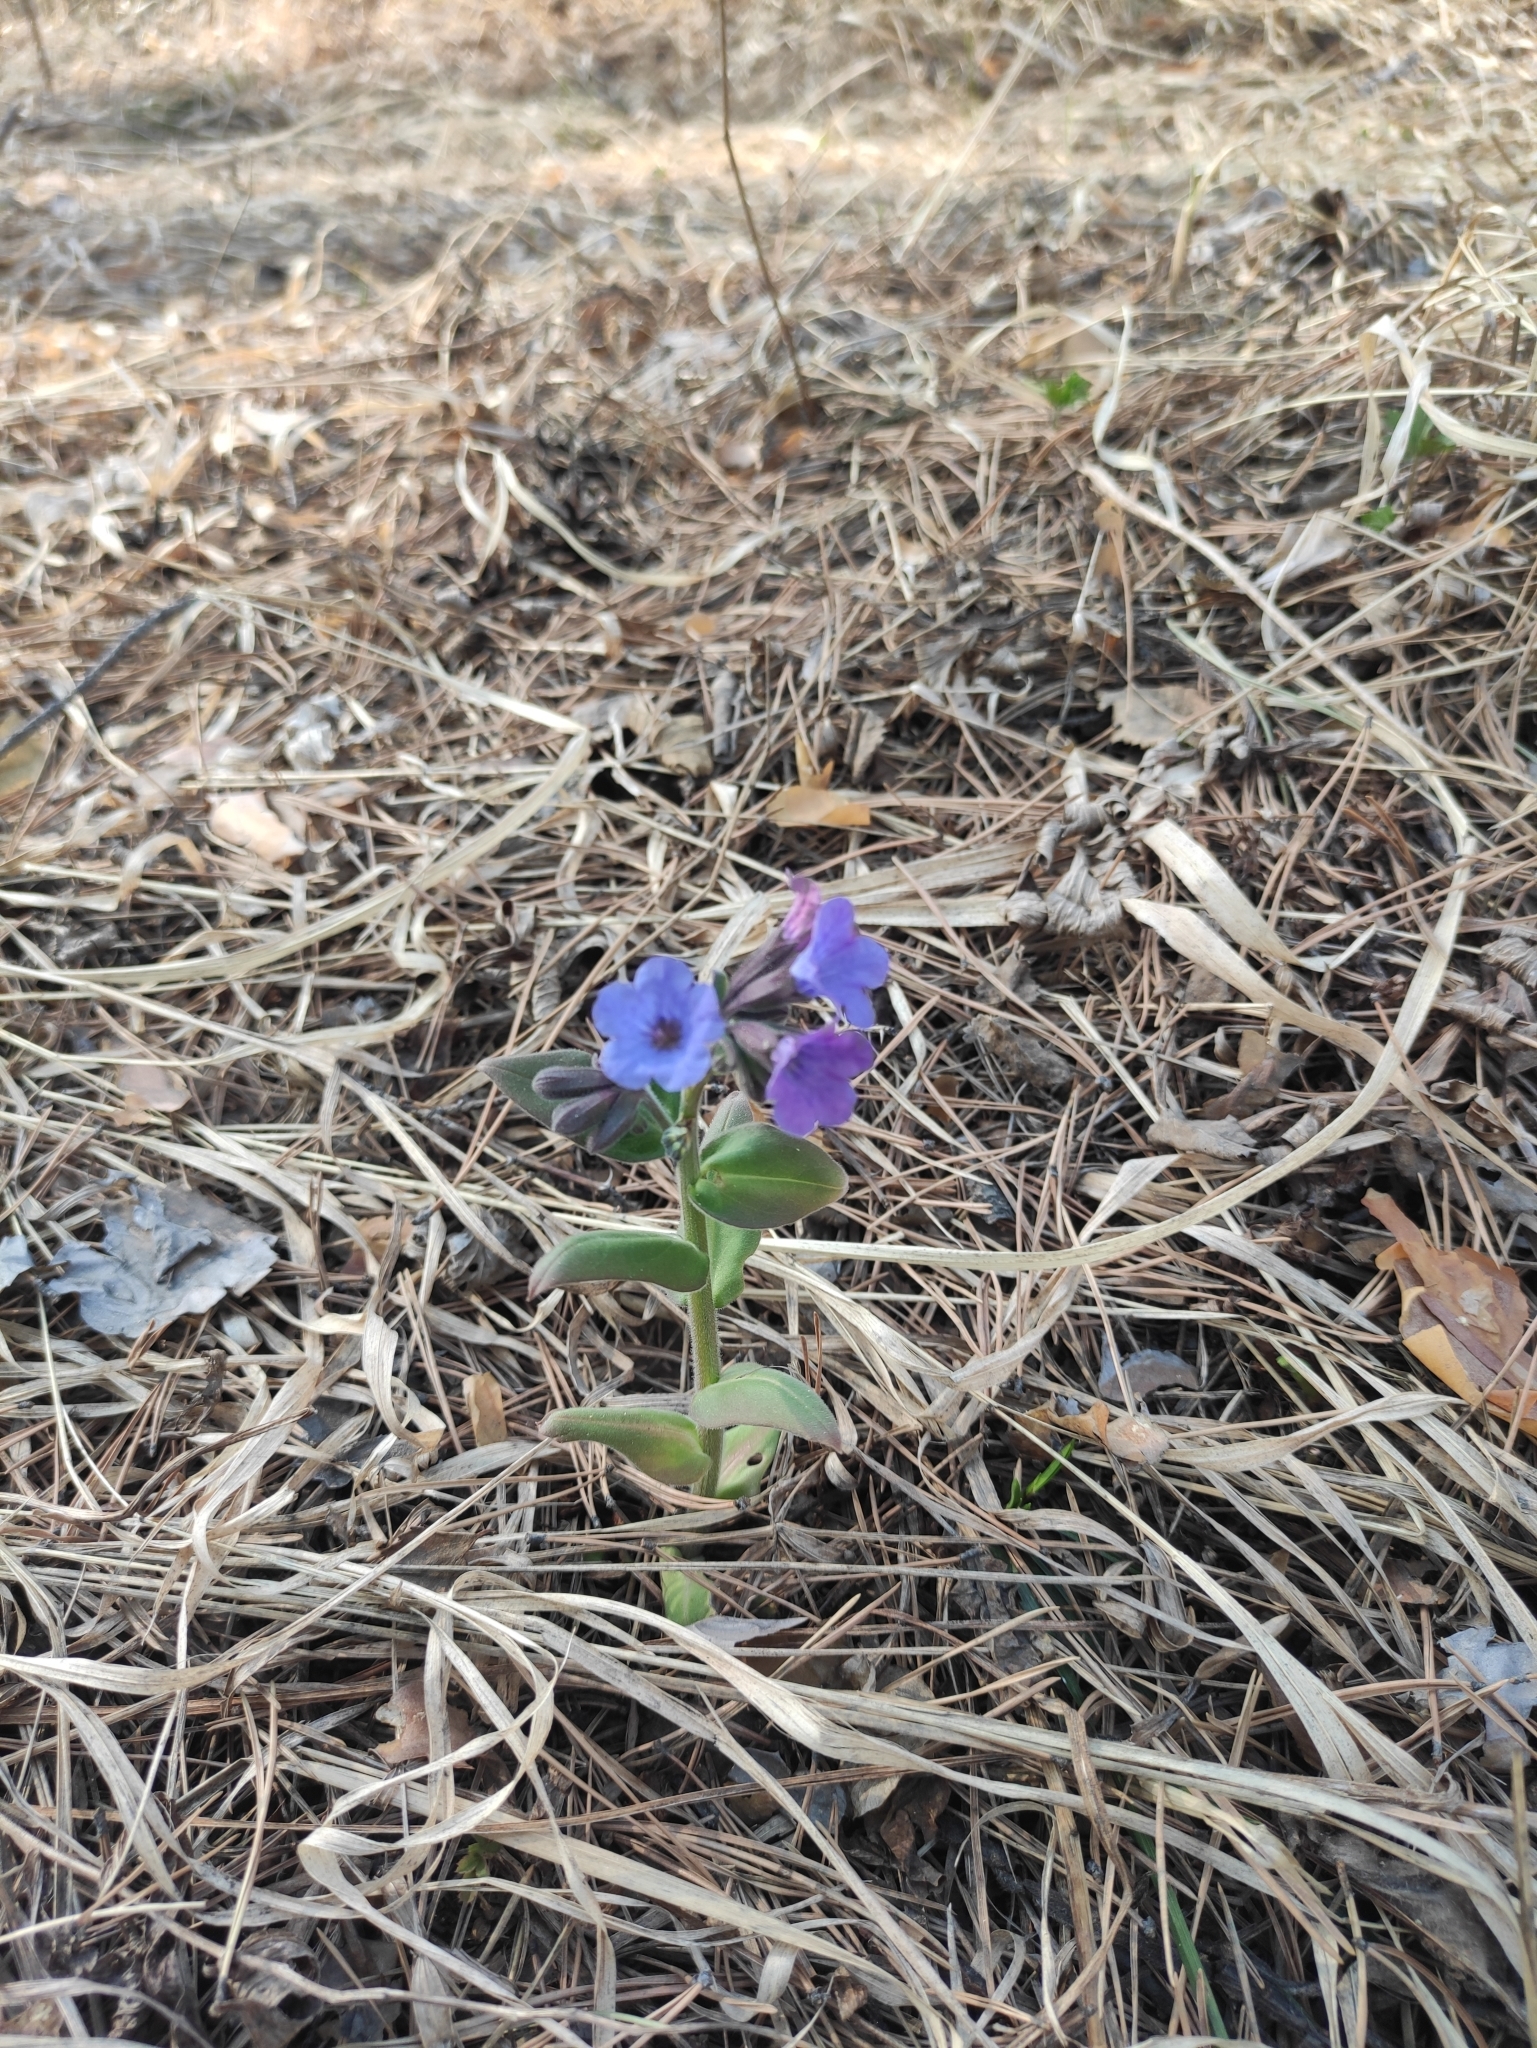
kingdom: Plantae
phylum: Tracheophyta
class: Magnoliopsida
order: Boraginales
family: Boraginaceae
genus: Pulmonaria
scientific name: Pulmonaria mollis
